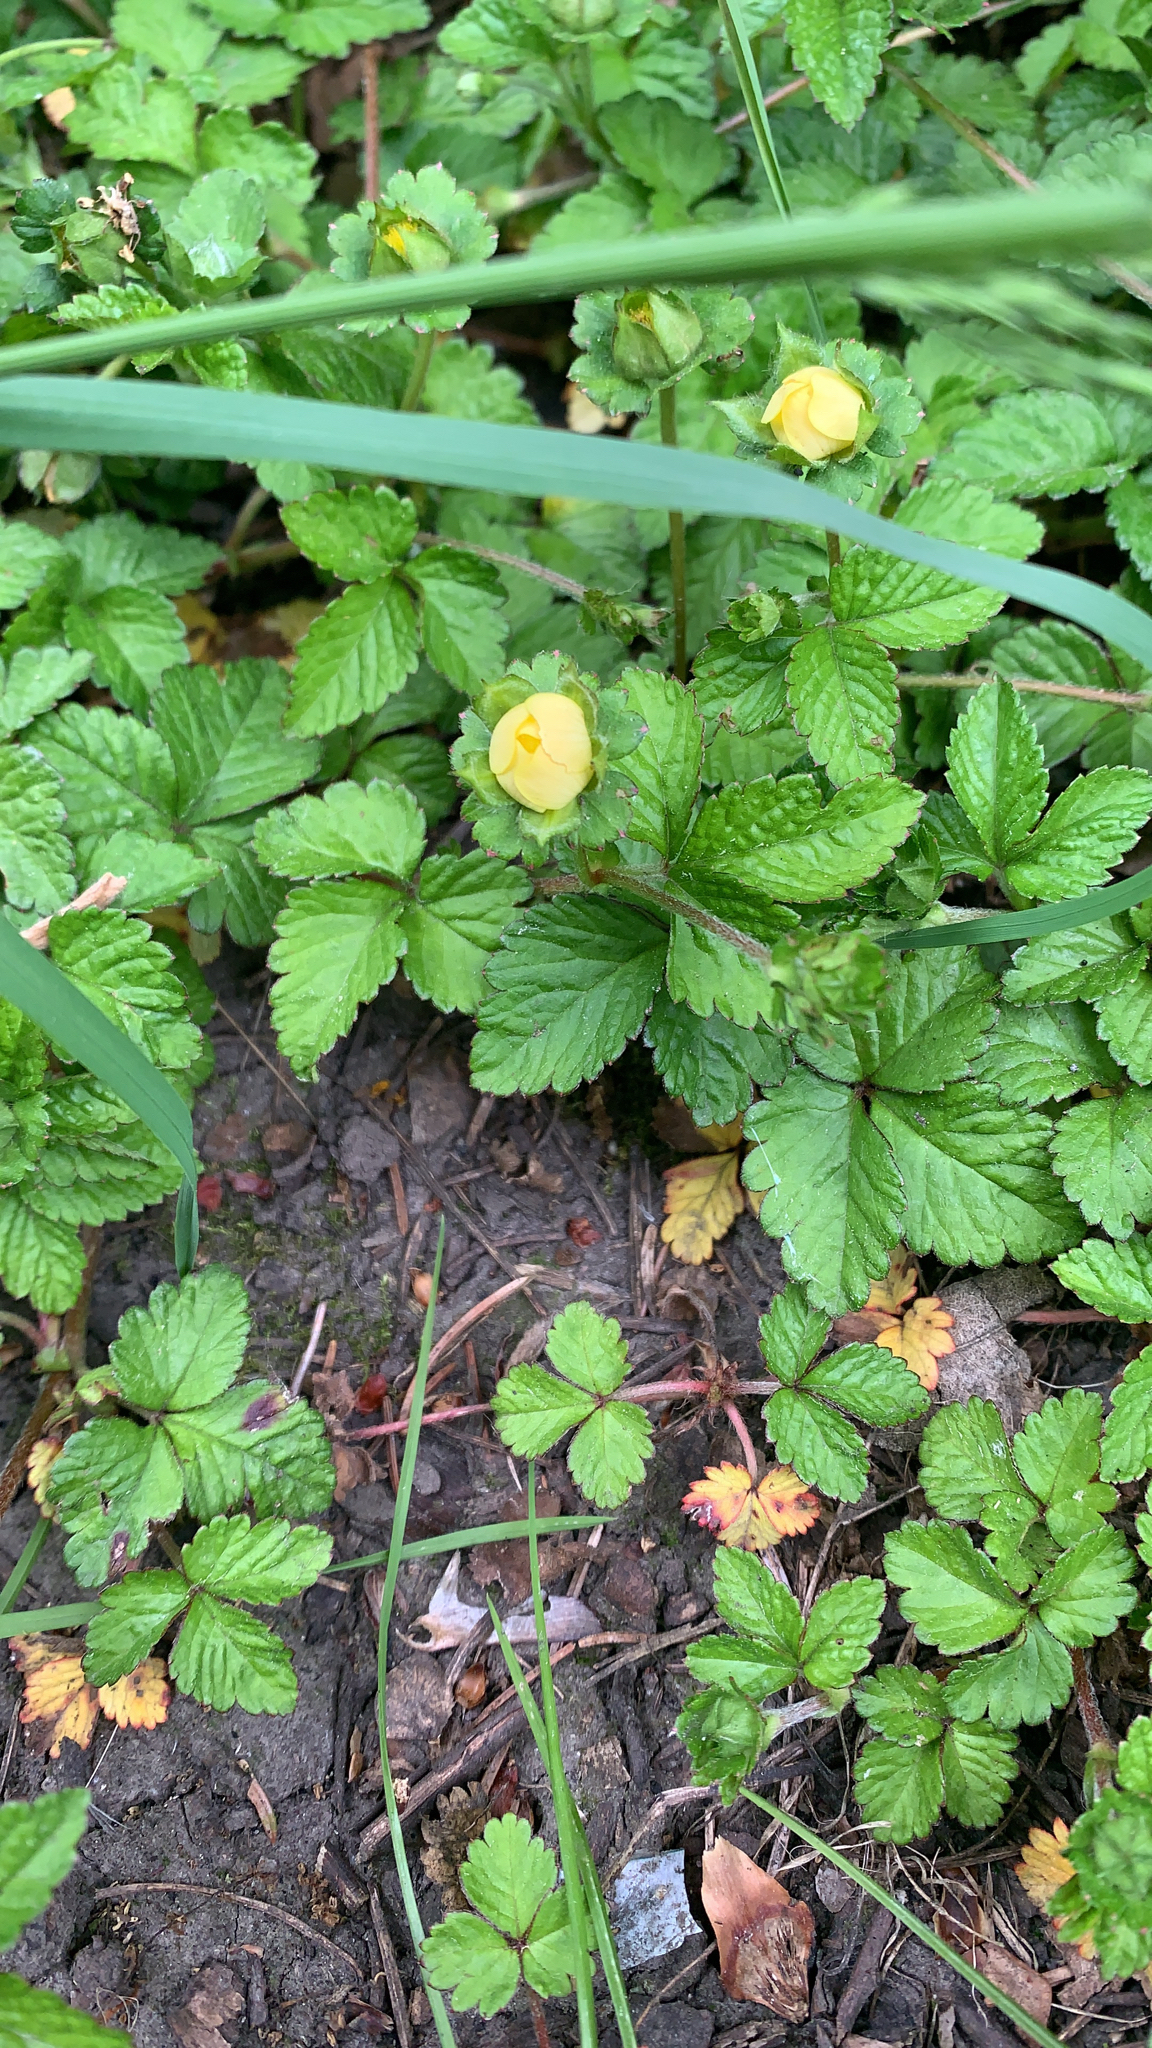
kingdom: Plantae
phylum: Tracheophyta
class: Magnoliopsida
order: Rosales
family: Rosaceae
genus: Potentilla
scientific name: Potentilla indica
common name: Yellow-flowered strawberry
